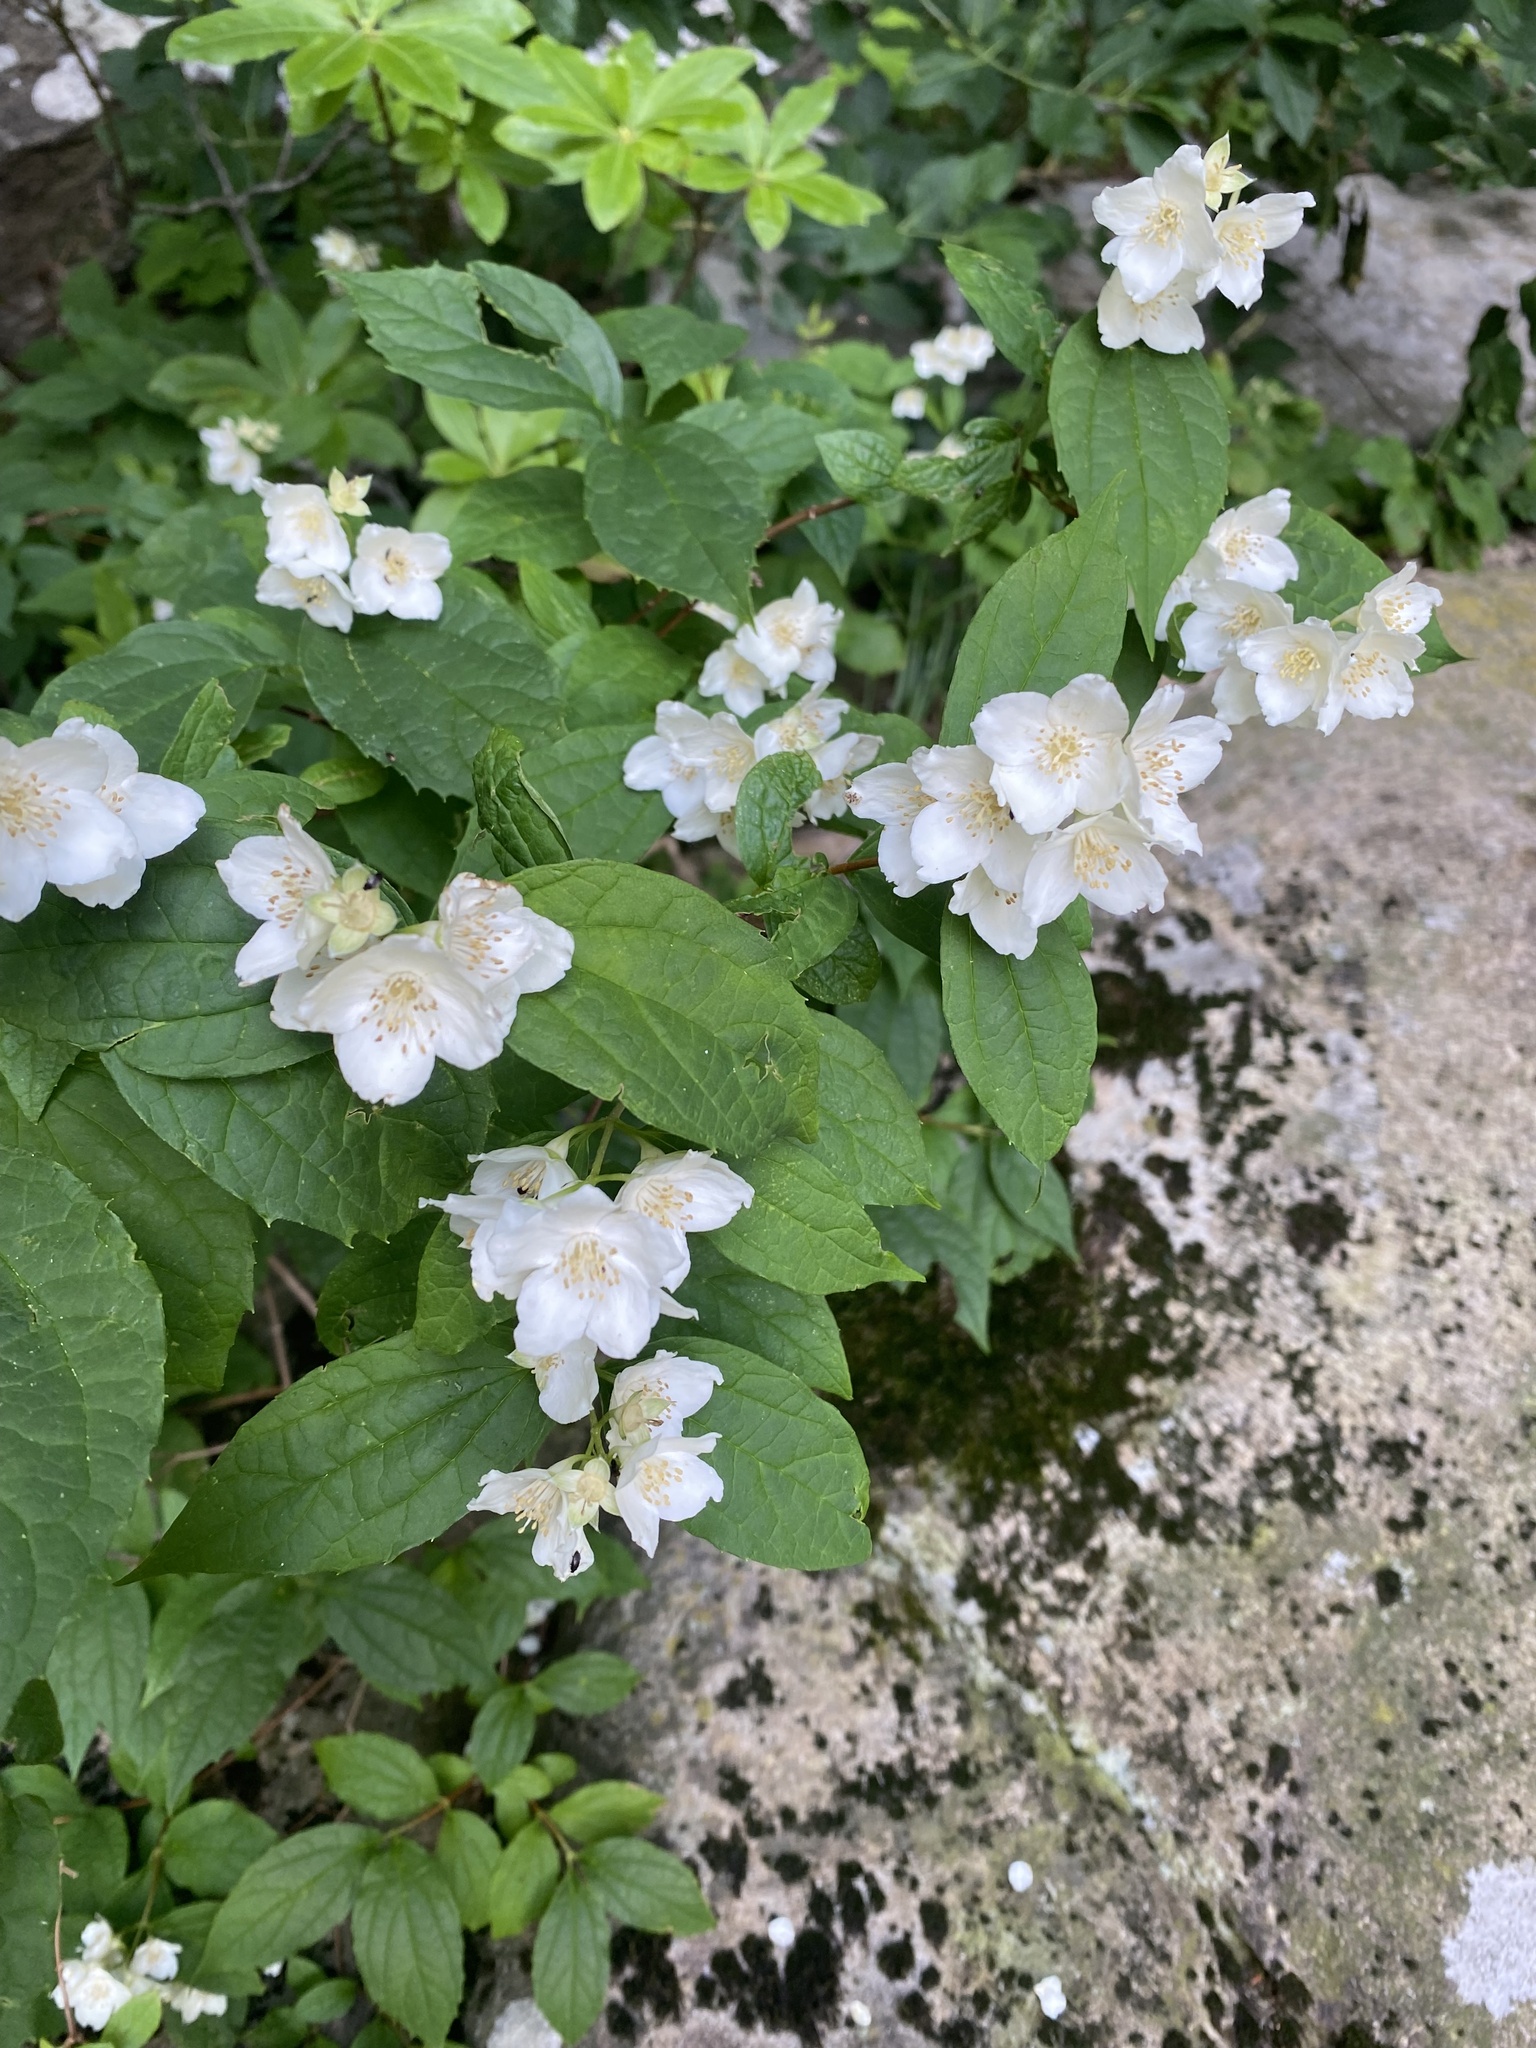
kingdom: Plantae
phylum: Tracheophyta
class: Magnoliopsida
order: Cornales
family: Hydrangeaceae
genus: Philadelphus
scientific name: Philadelphus coronarius
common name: Mock orange
